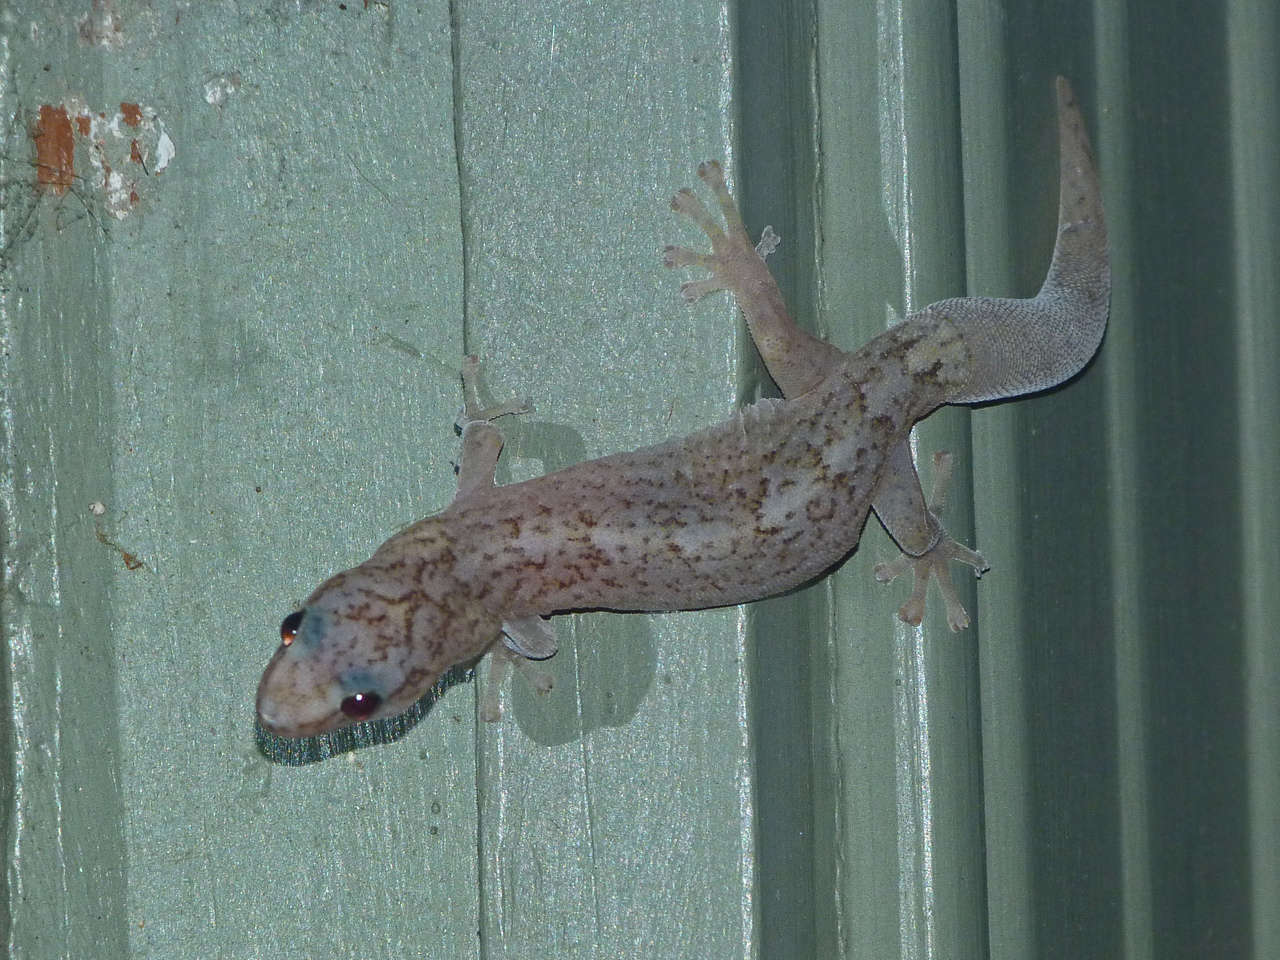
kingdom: Animalia
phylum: Chordata
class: Squamata
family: Gekkonidae
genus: Christinus
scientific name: Christinus marmoratus
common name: Marbled gecko
